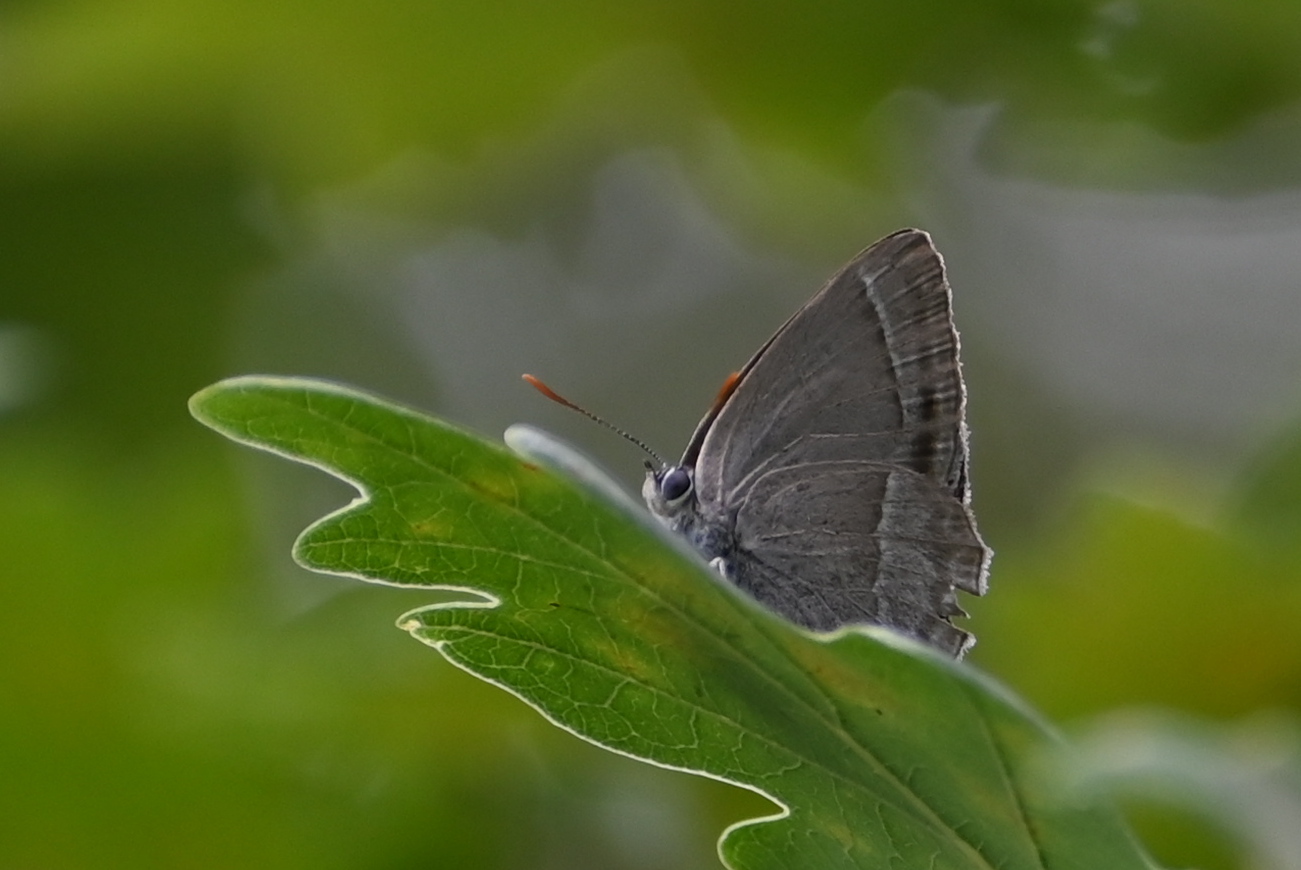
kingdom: Animalia
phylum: Arthropoda
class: Insecta
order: Lepidoptera
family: Lycaenidae
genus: Quercusia
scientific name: Quercusia quercus
